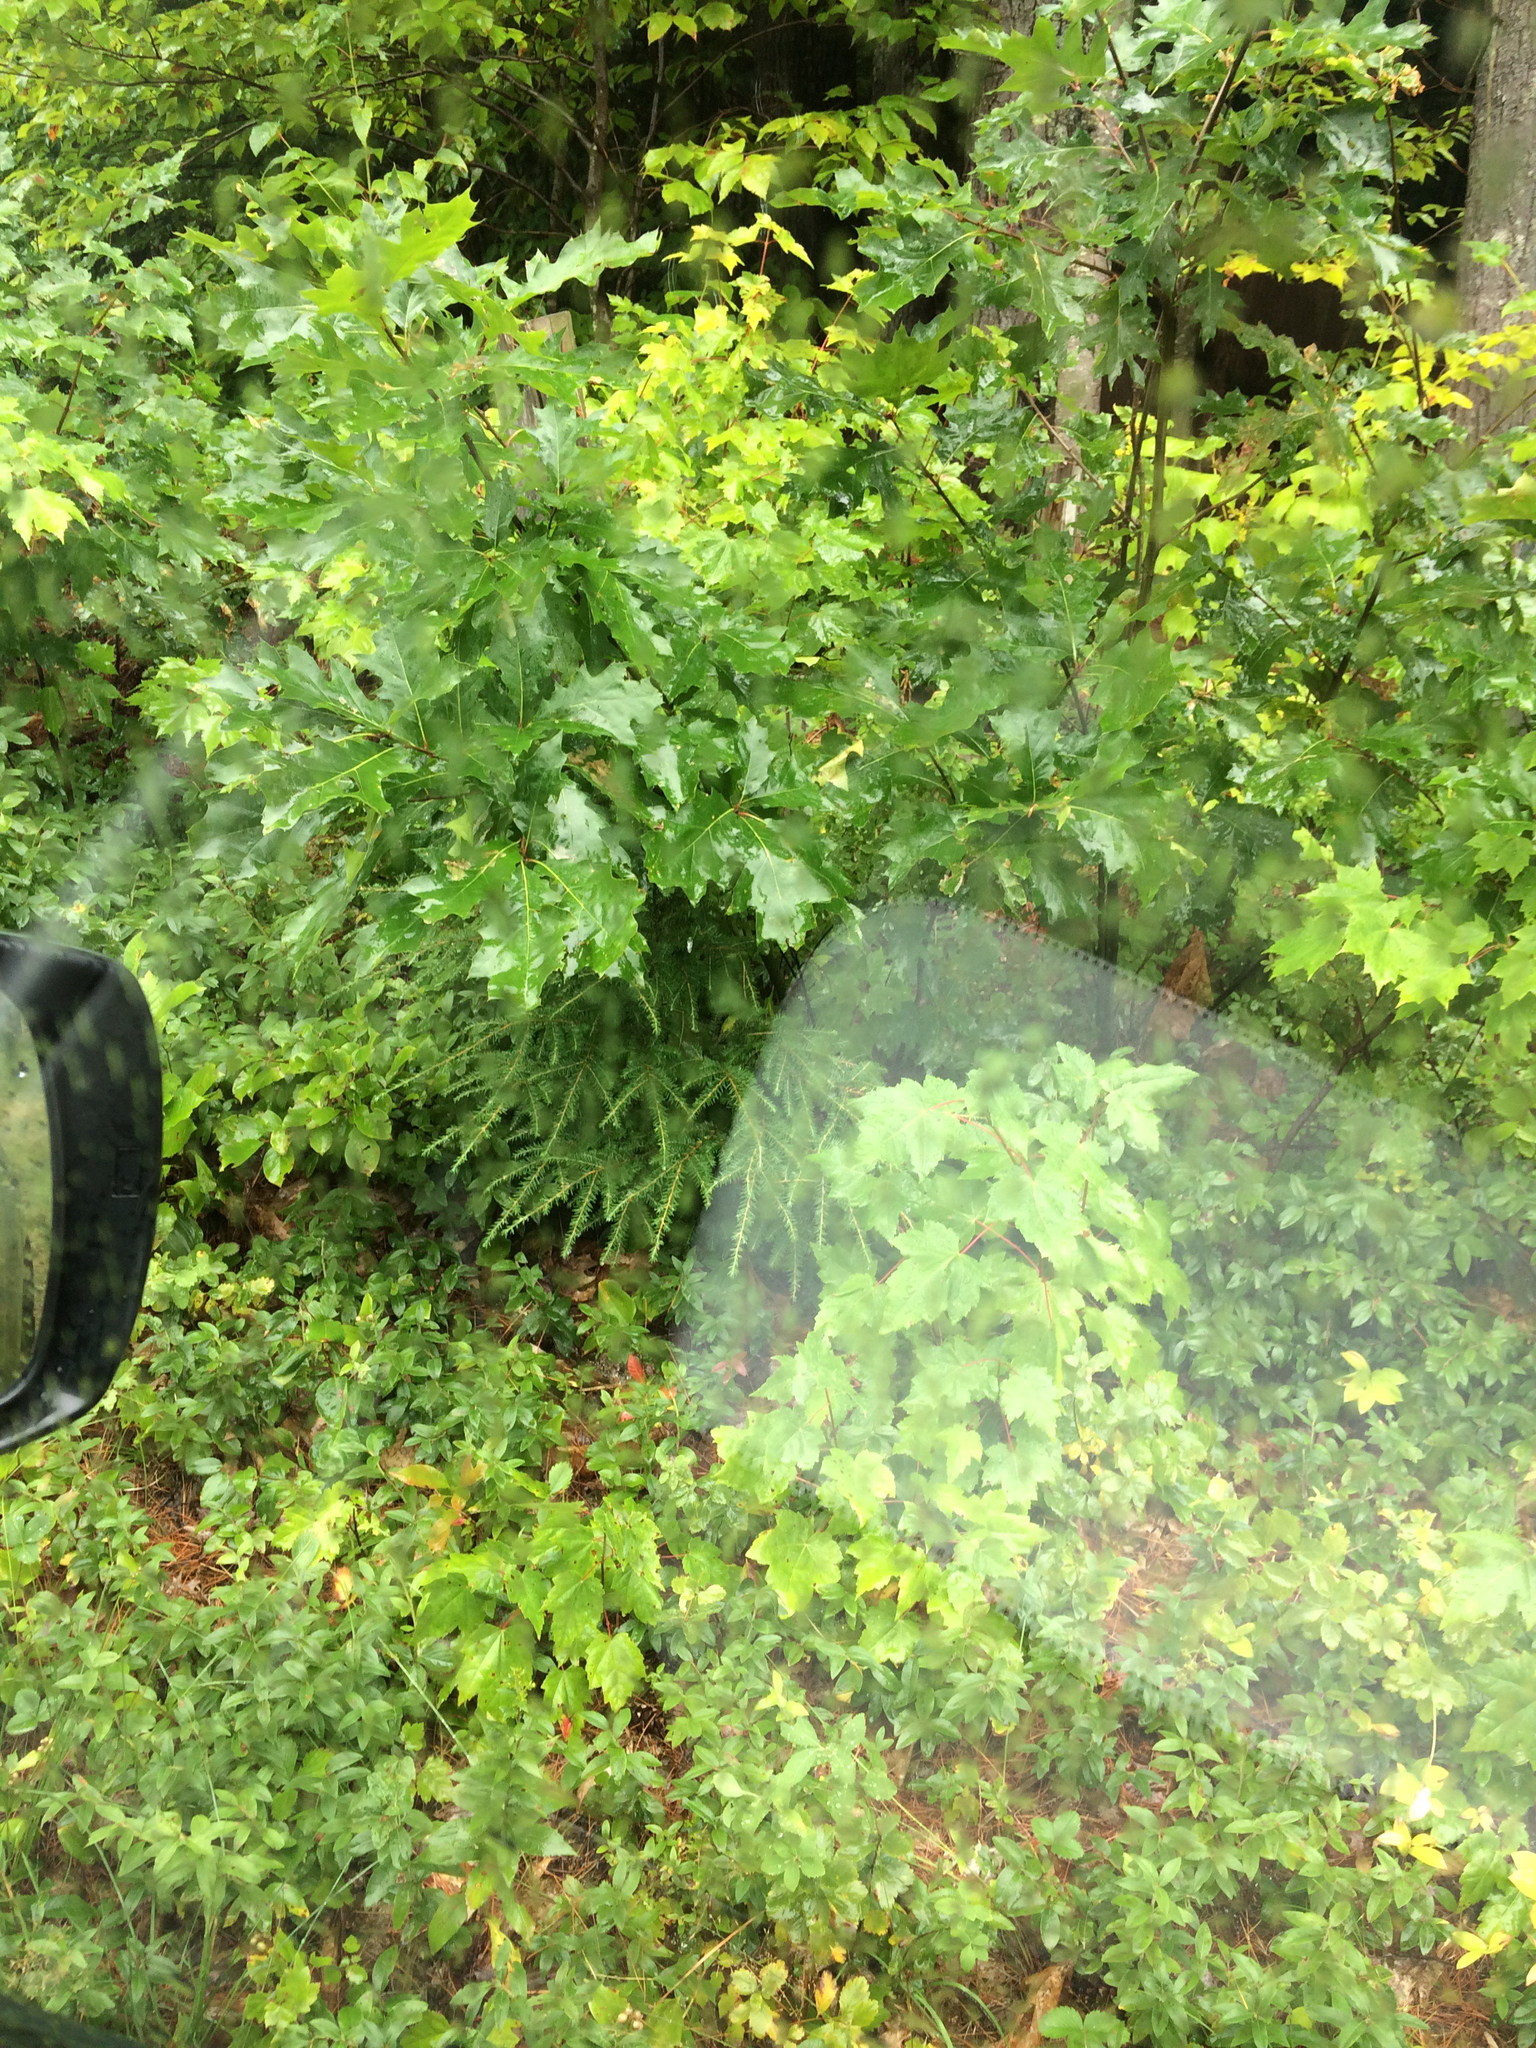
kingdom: Plantae
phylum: Tracheophyta
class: Magnoliopsida
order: Sapindales
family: Sapindaceae
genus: Acer
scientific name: Acer rubrum
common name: Red maple
